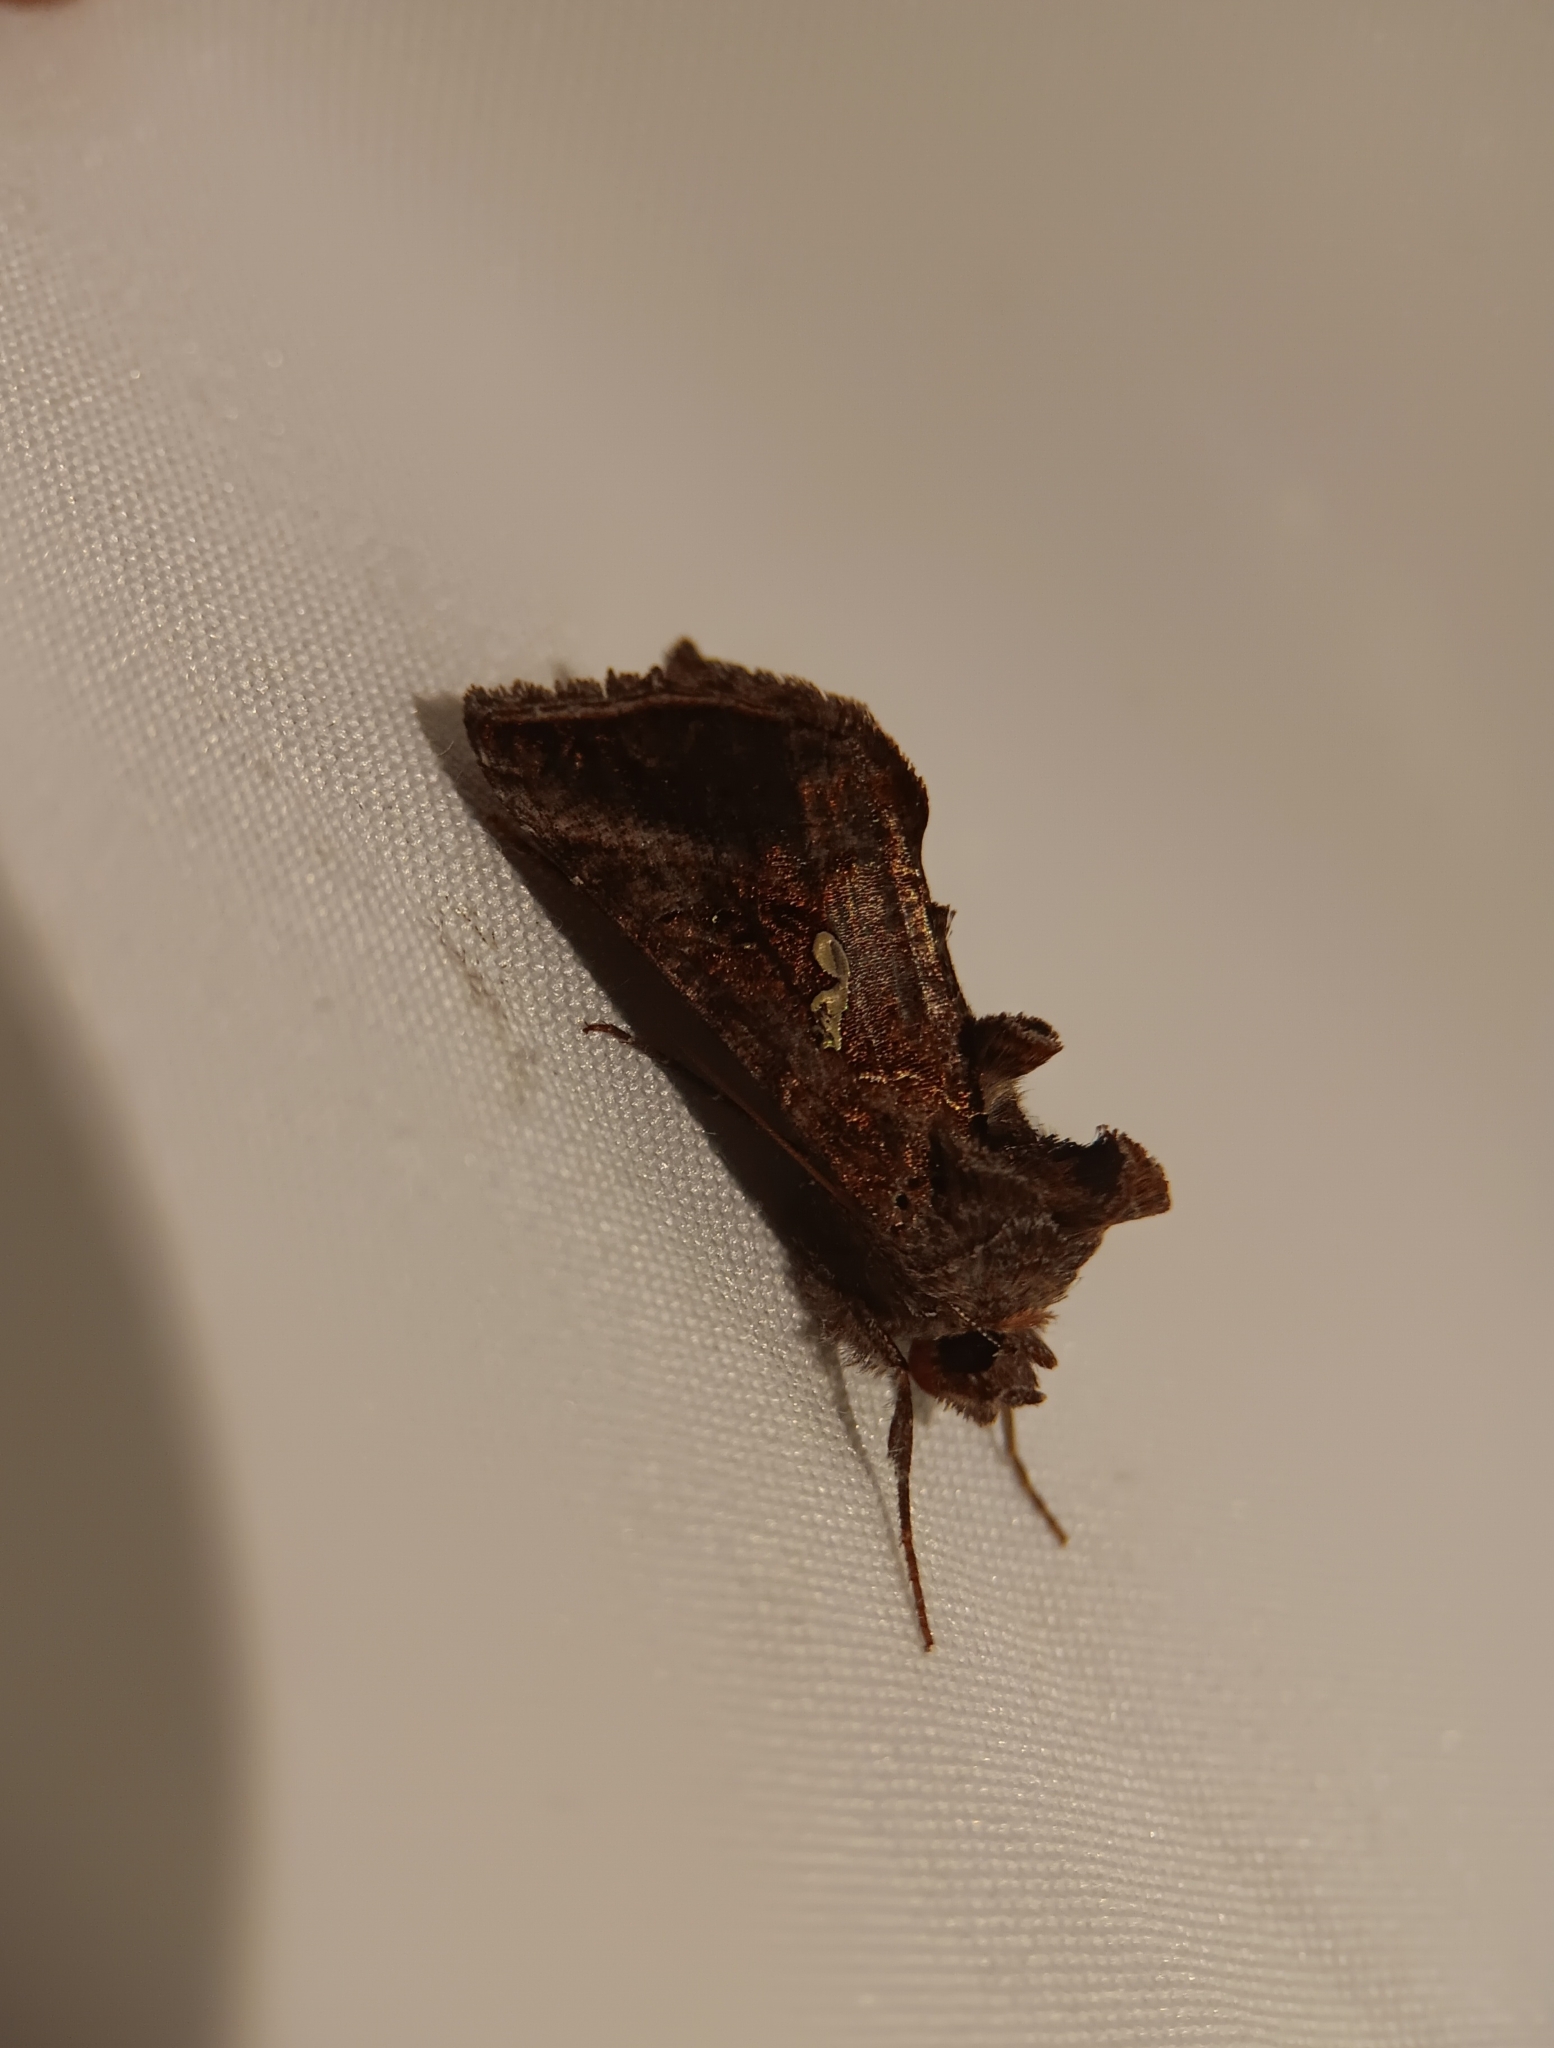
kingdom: Animalia
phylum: Arthropoda
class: Insecta
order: Lepidoptera
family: Noctuidae
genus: Autographa
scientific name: Autographa precationis
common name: Common looper moth
